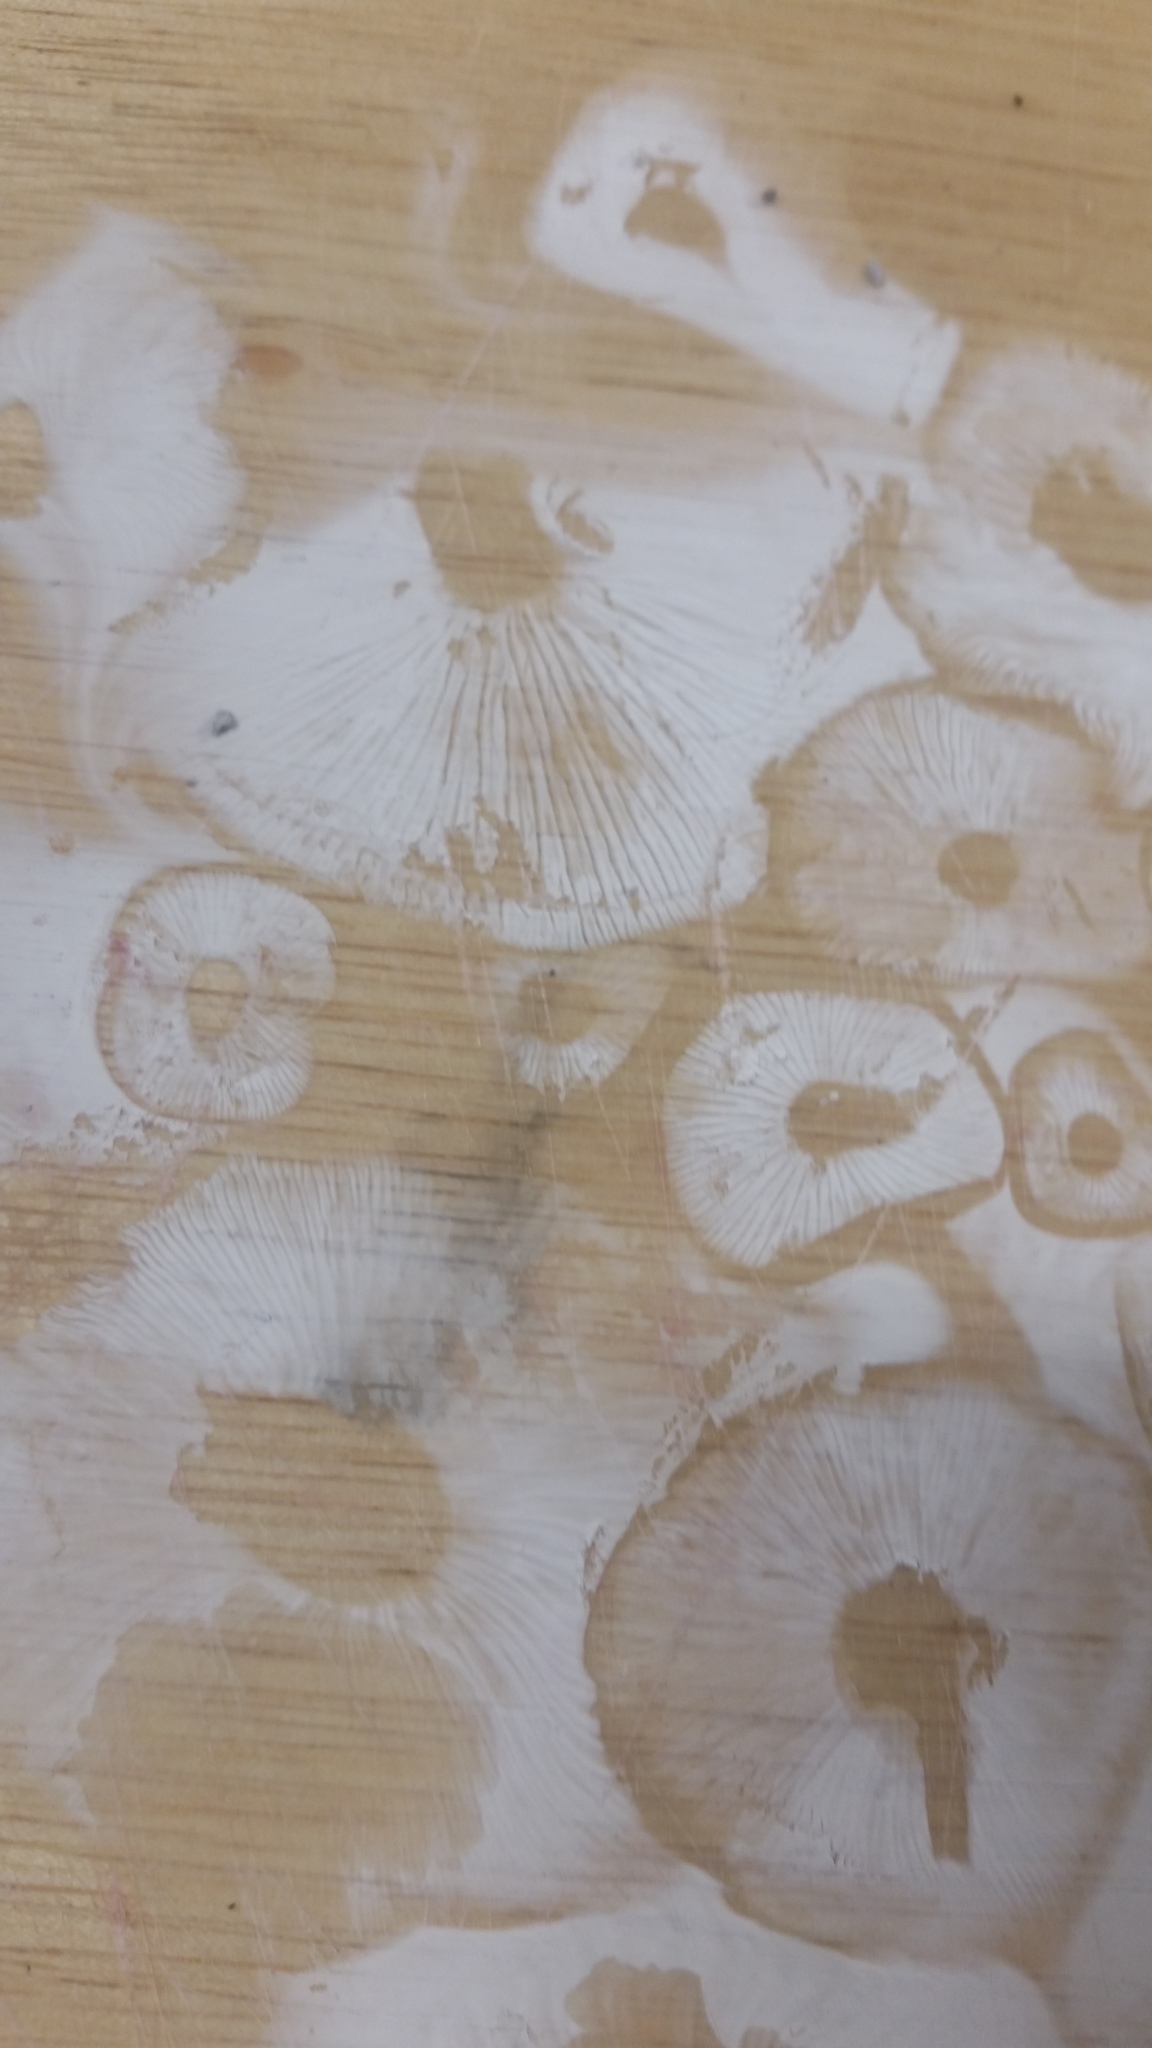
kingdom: Fungi
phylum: Basidiomycota
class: Agaricomycetes
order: Agaricales
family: Physalacriaceae
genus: Flammulina
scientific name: Flammulina velutipes
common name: Velvet shank
